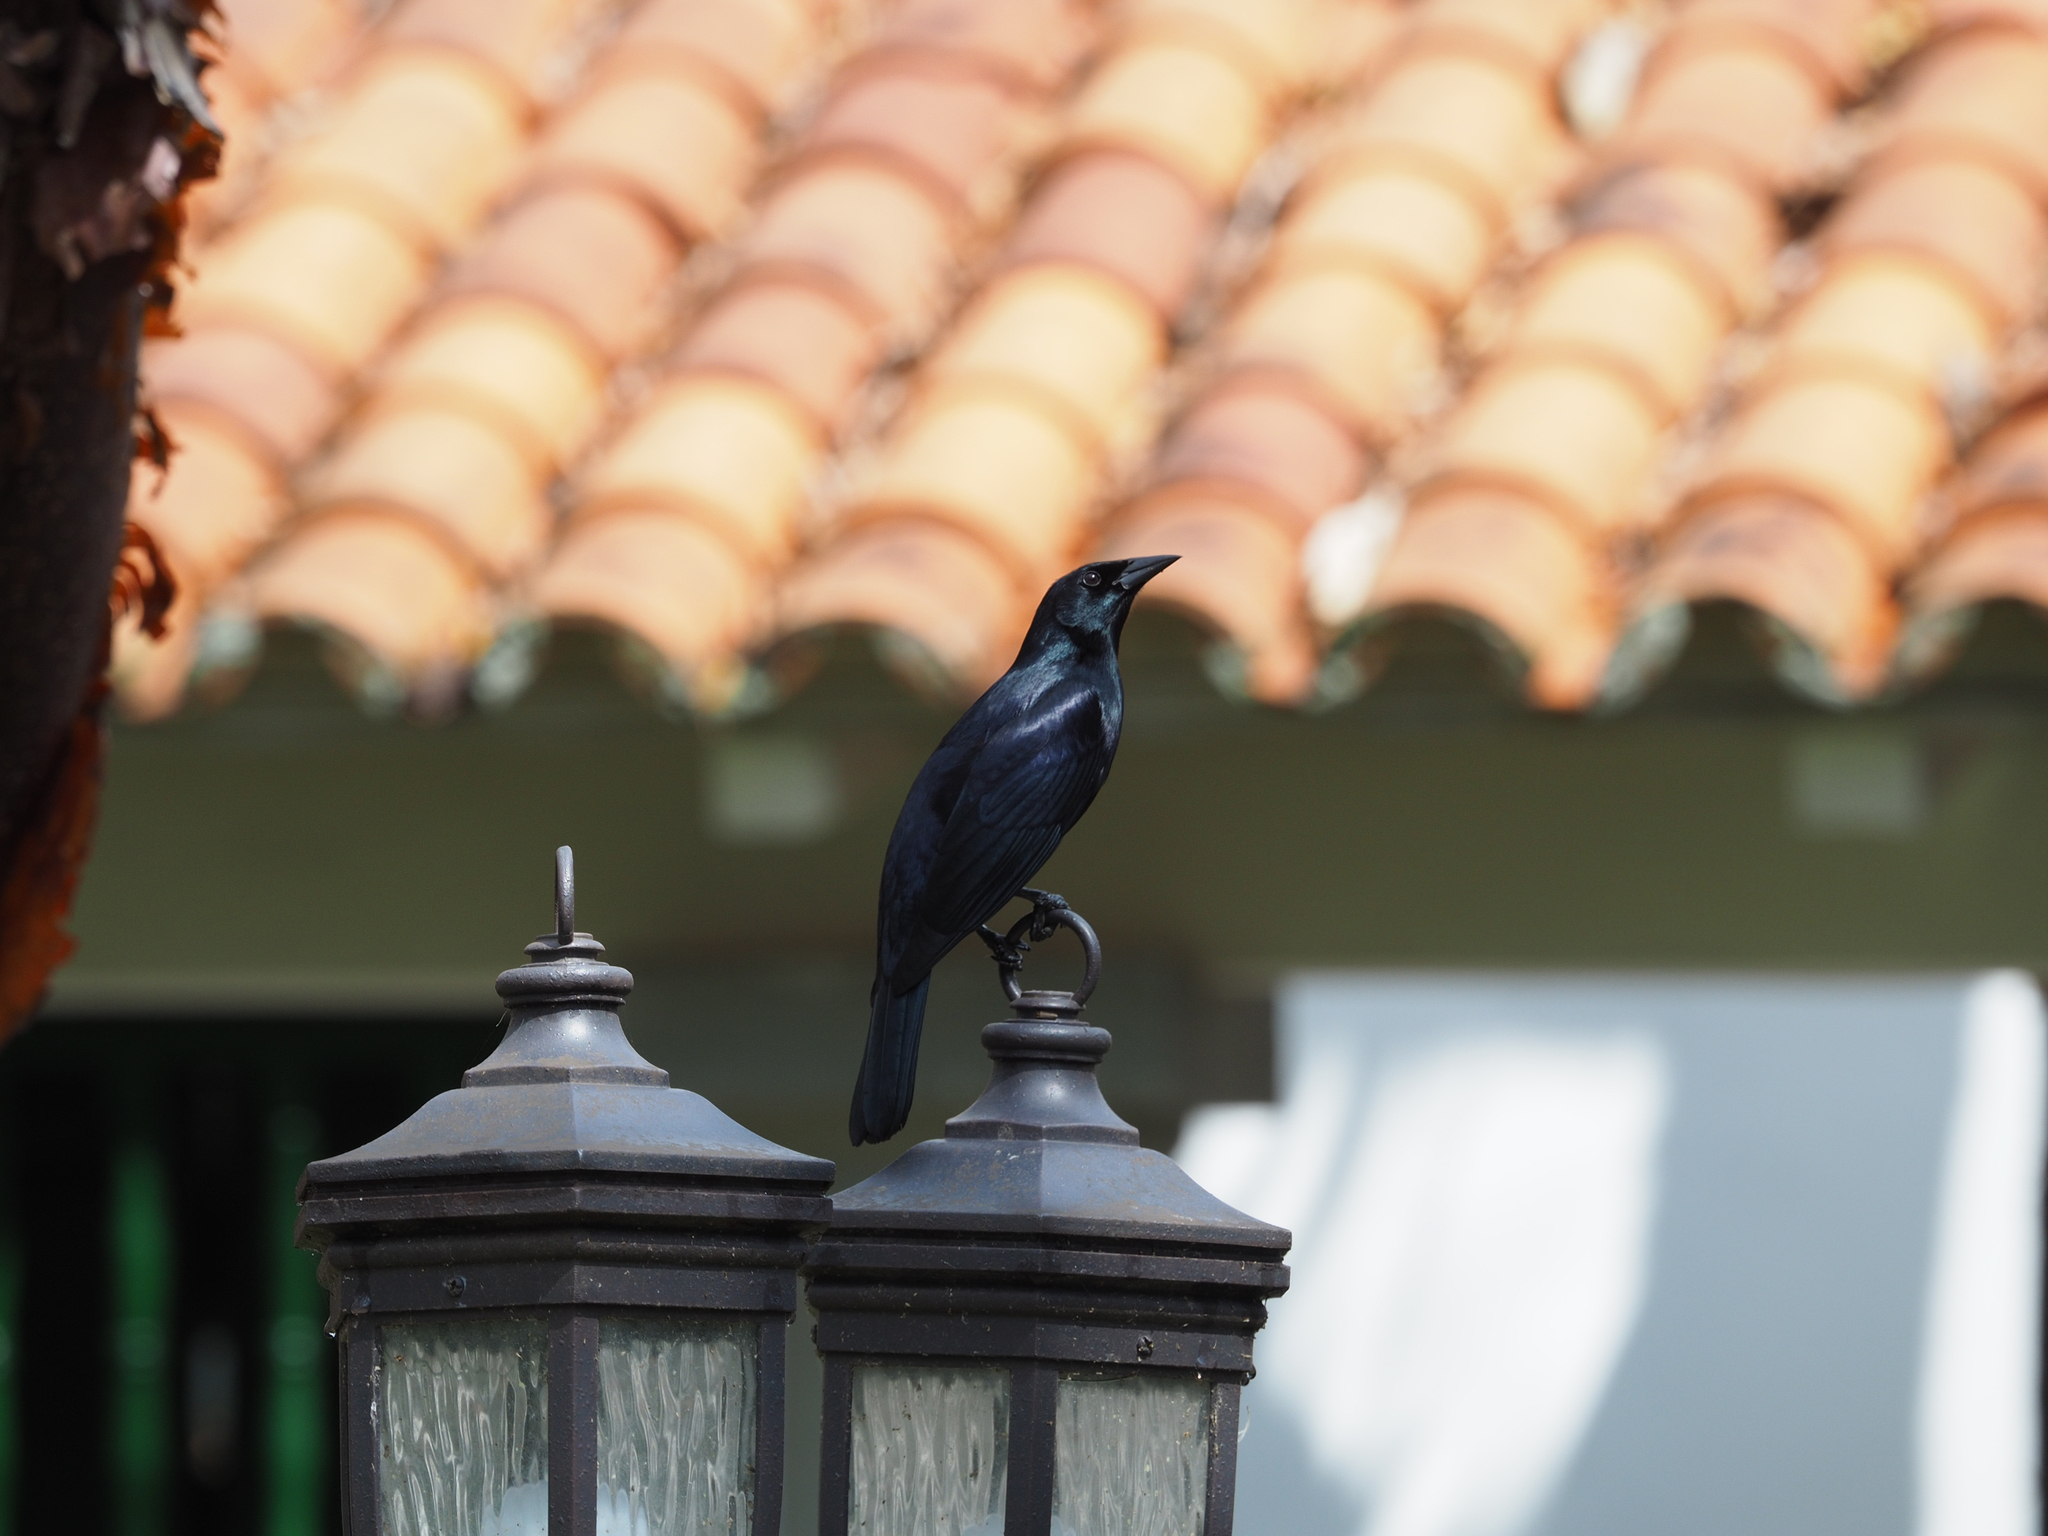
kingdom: Animalia
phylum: Chordata
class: Aves
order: Passeriformes
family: Icteridae
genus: Dives
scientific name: Dives atroviolaceus
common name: Cuban blackbird
